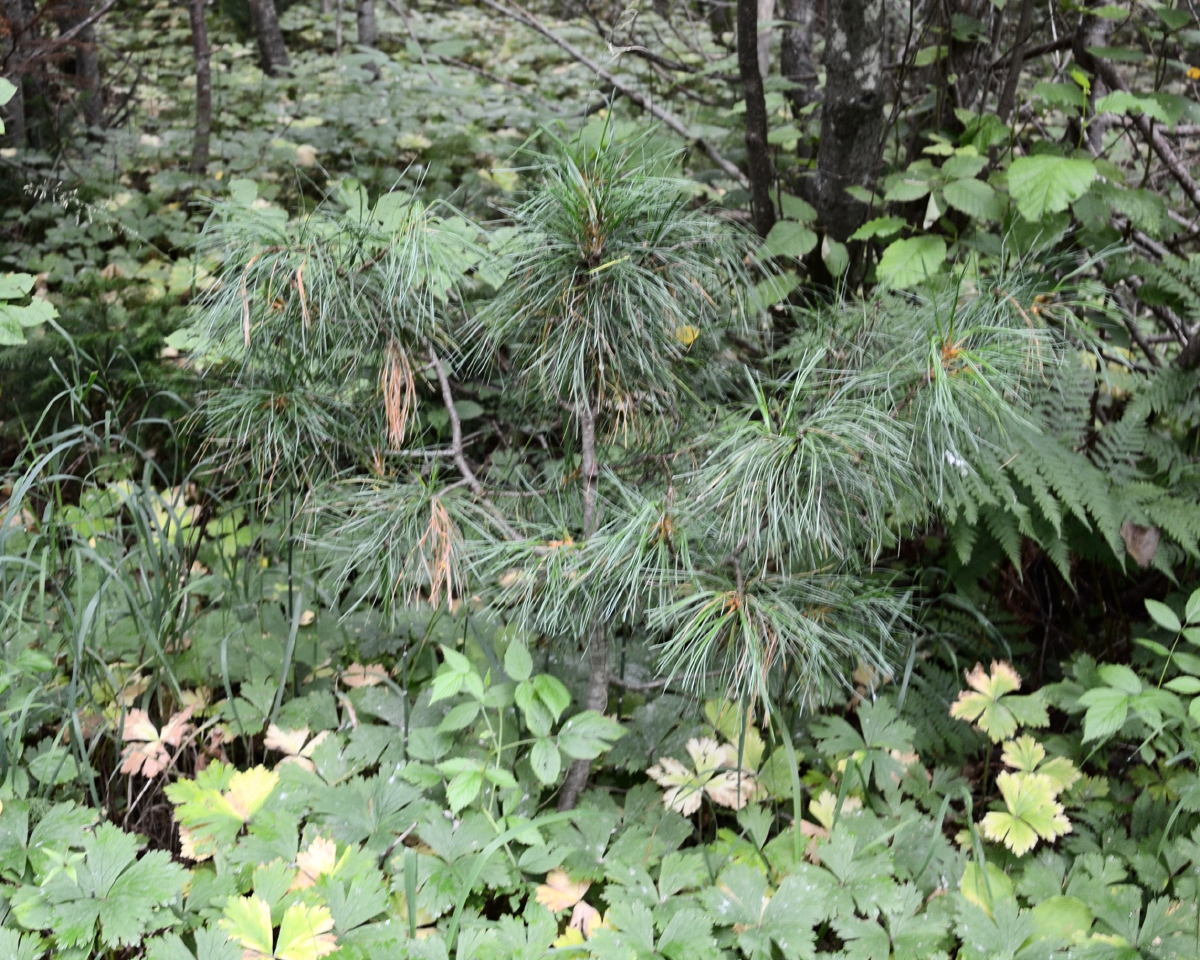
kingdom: Plantae
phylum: Tracheophyta
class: Pinopsida
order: Pinales
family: Pinaceae
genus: Pinus
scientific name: Pinus sibirica
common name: Siberian pine
